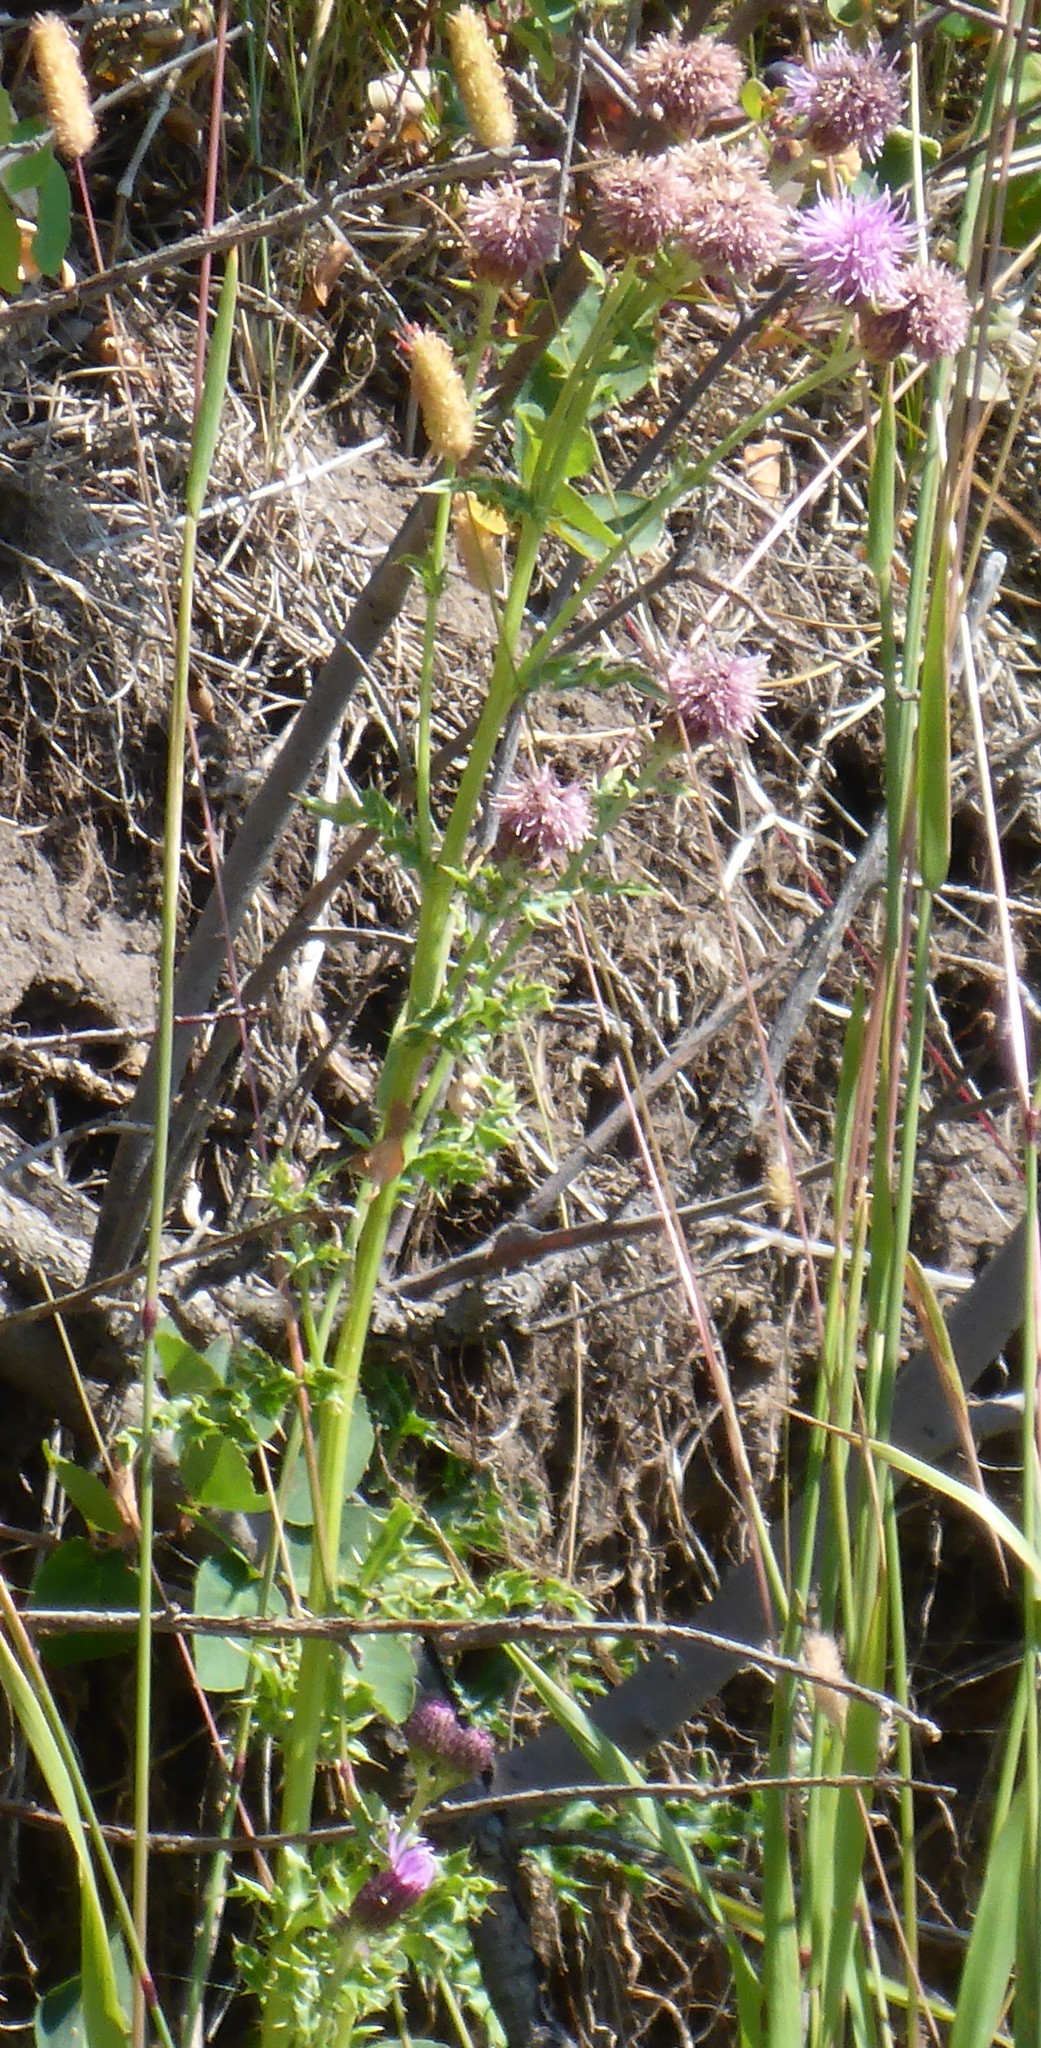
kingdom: Plantae
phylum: Tracheophyta
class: Magnoliopsida
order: Asterales
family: Asteraceae
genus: Cirsium
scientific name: Cirsium arvense
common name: Creeping thistle
